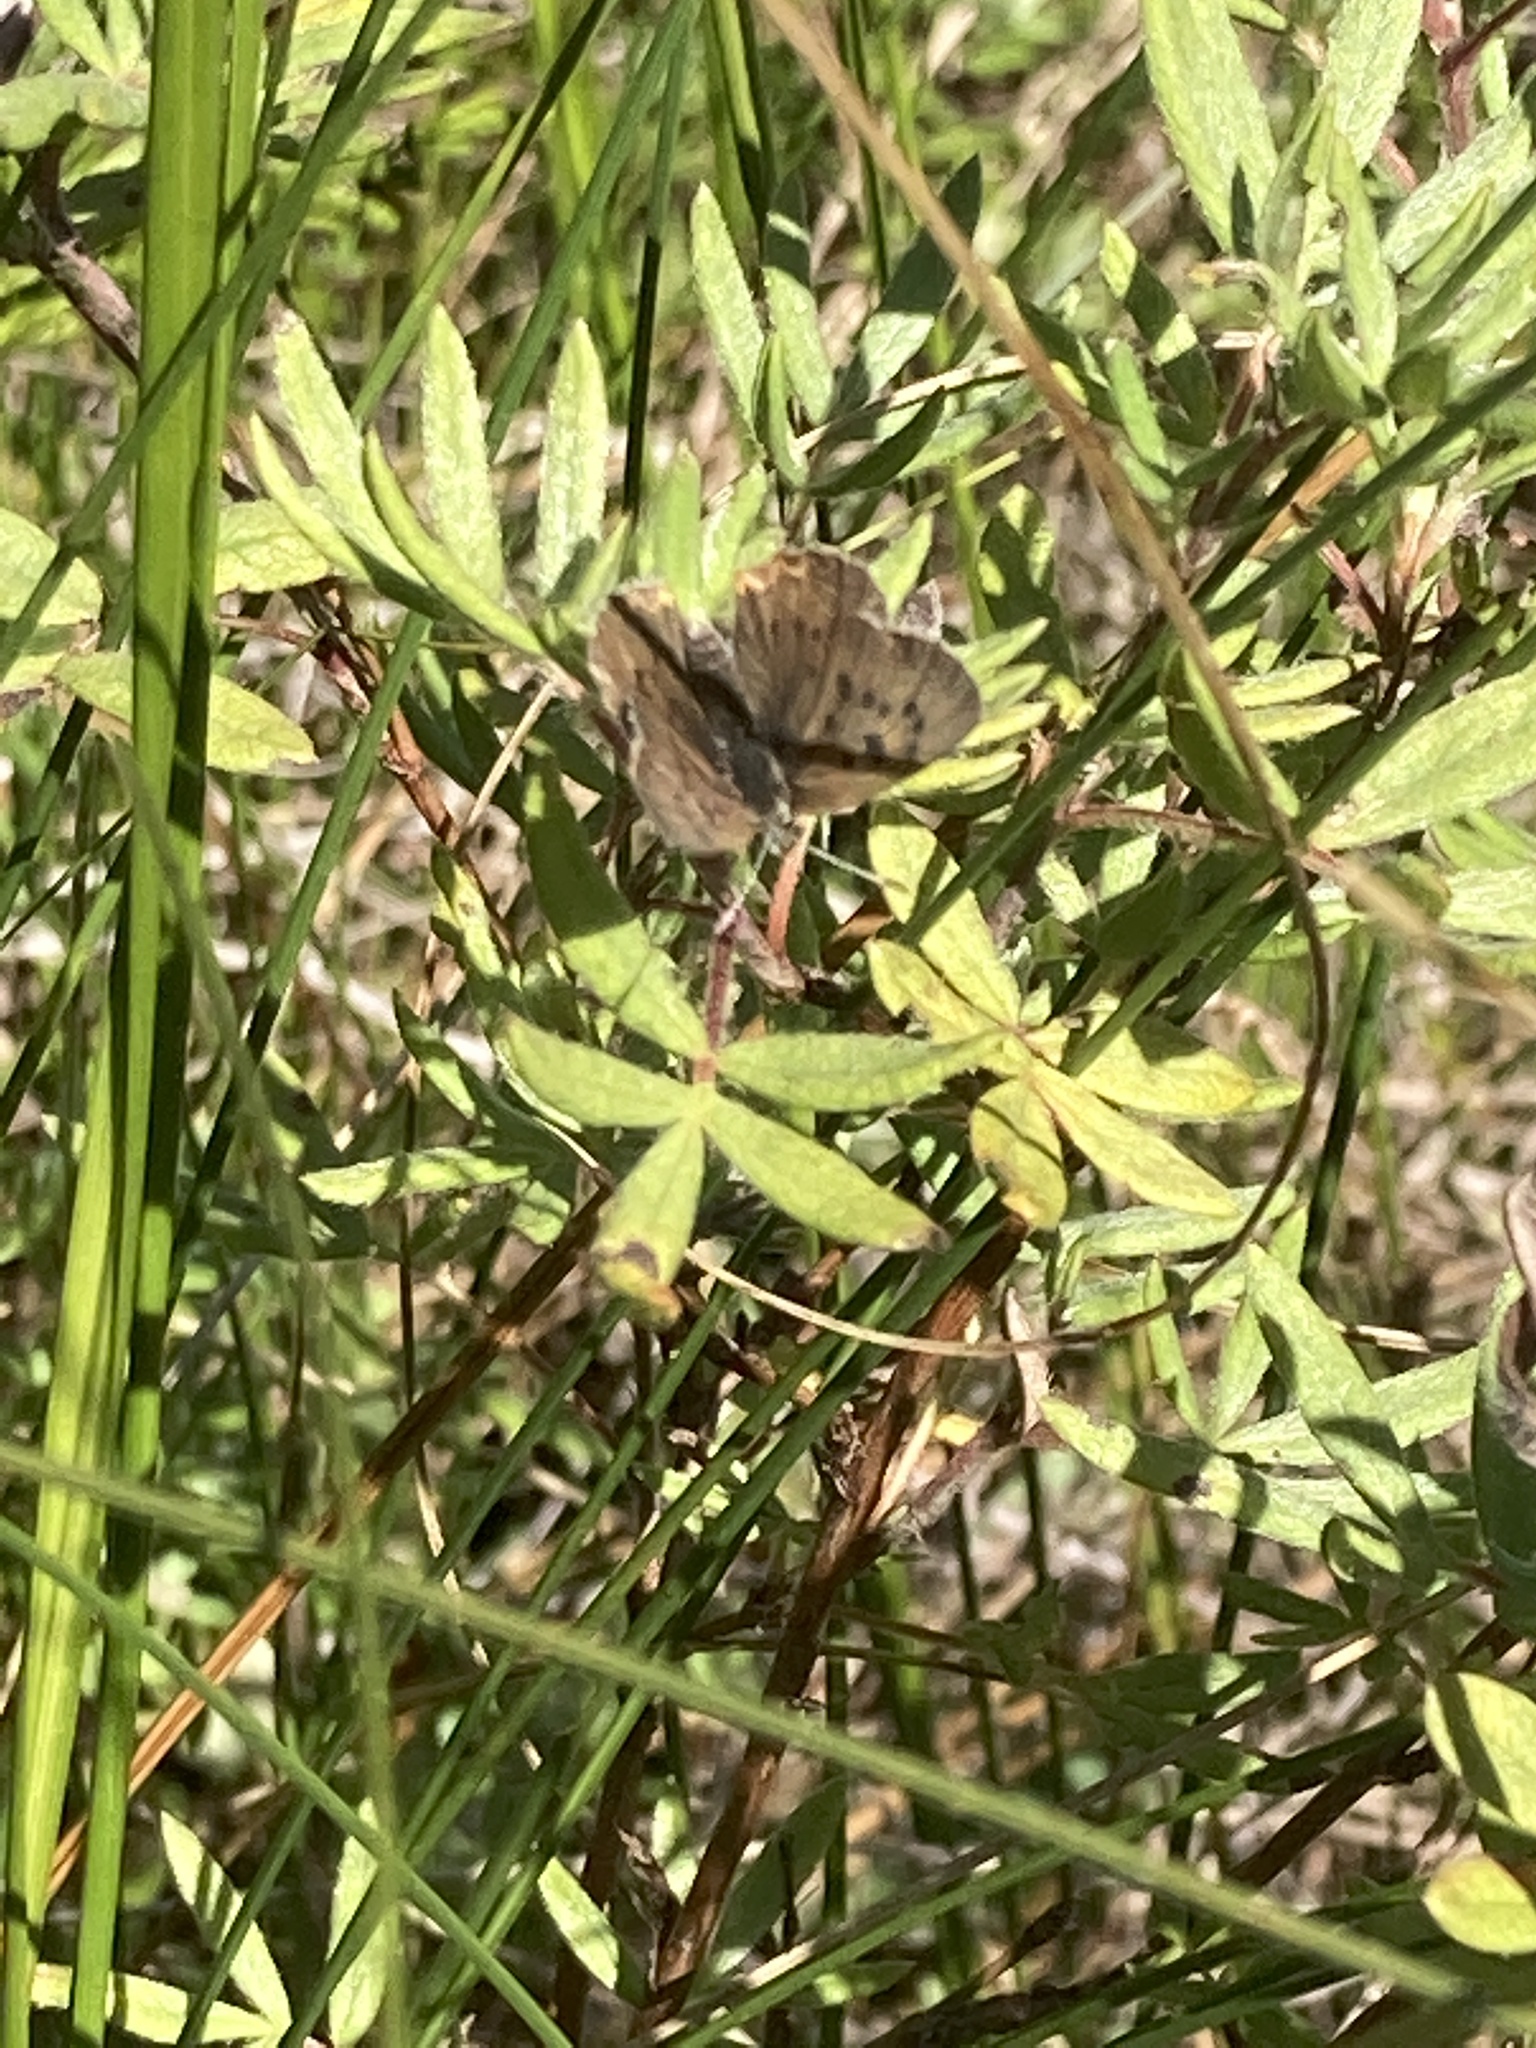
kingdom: Animalia
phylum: Arthropoda
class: Insecta
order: Lepidoptera
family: Lycaenidae
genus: Tharsalea
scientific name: Tharsalea epixanthe
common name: Bog copper
